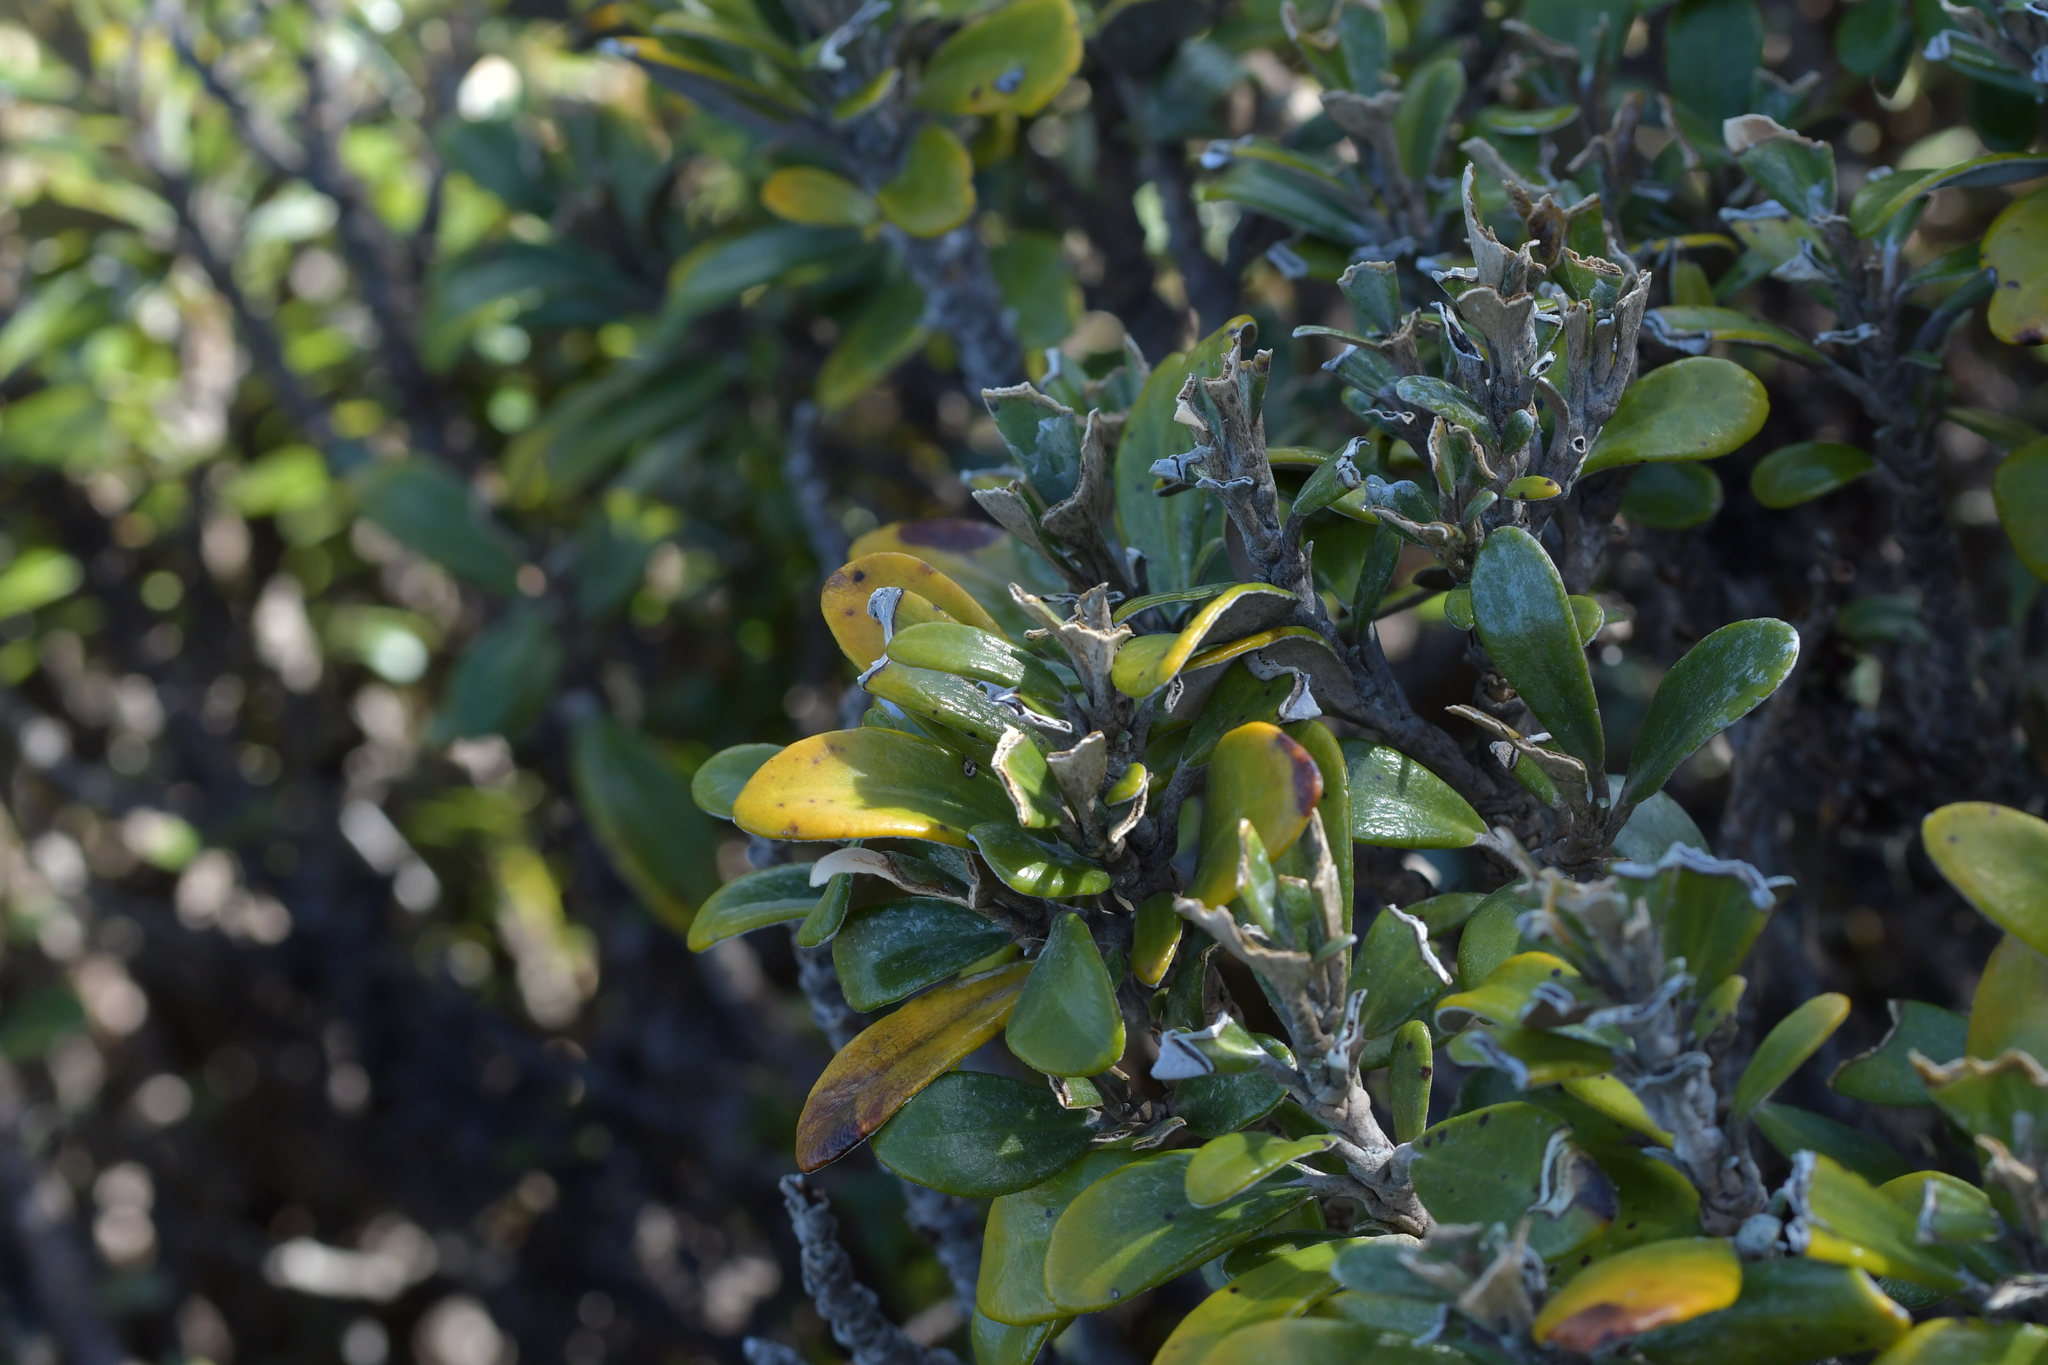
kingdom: Plantae
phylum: Tracheophyta
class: Magnoliopsida
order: Asterales
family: Asteraceae
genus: Brachyglottis
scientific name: Brachyglottis bidwillii
